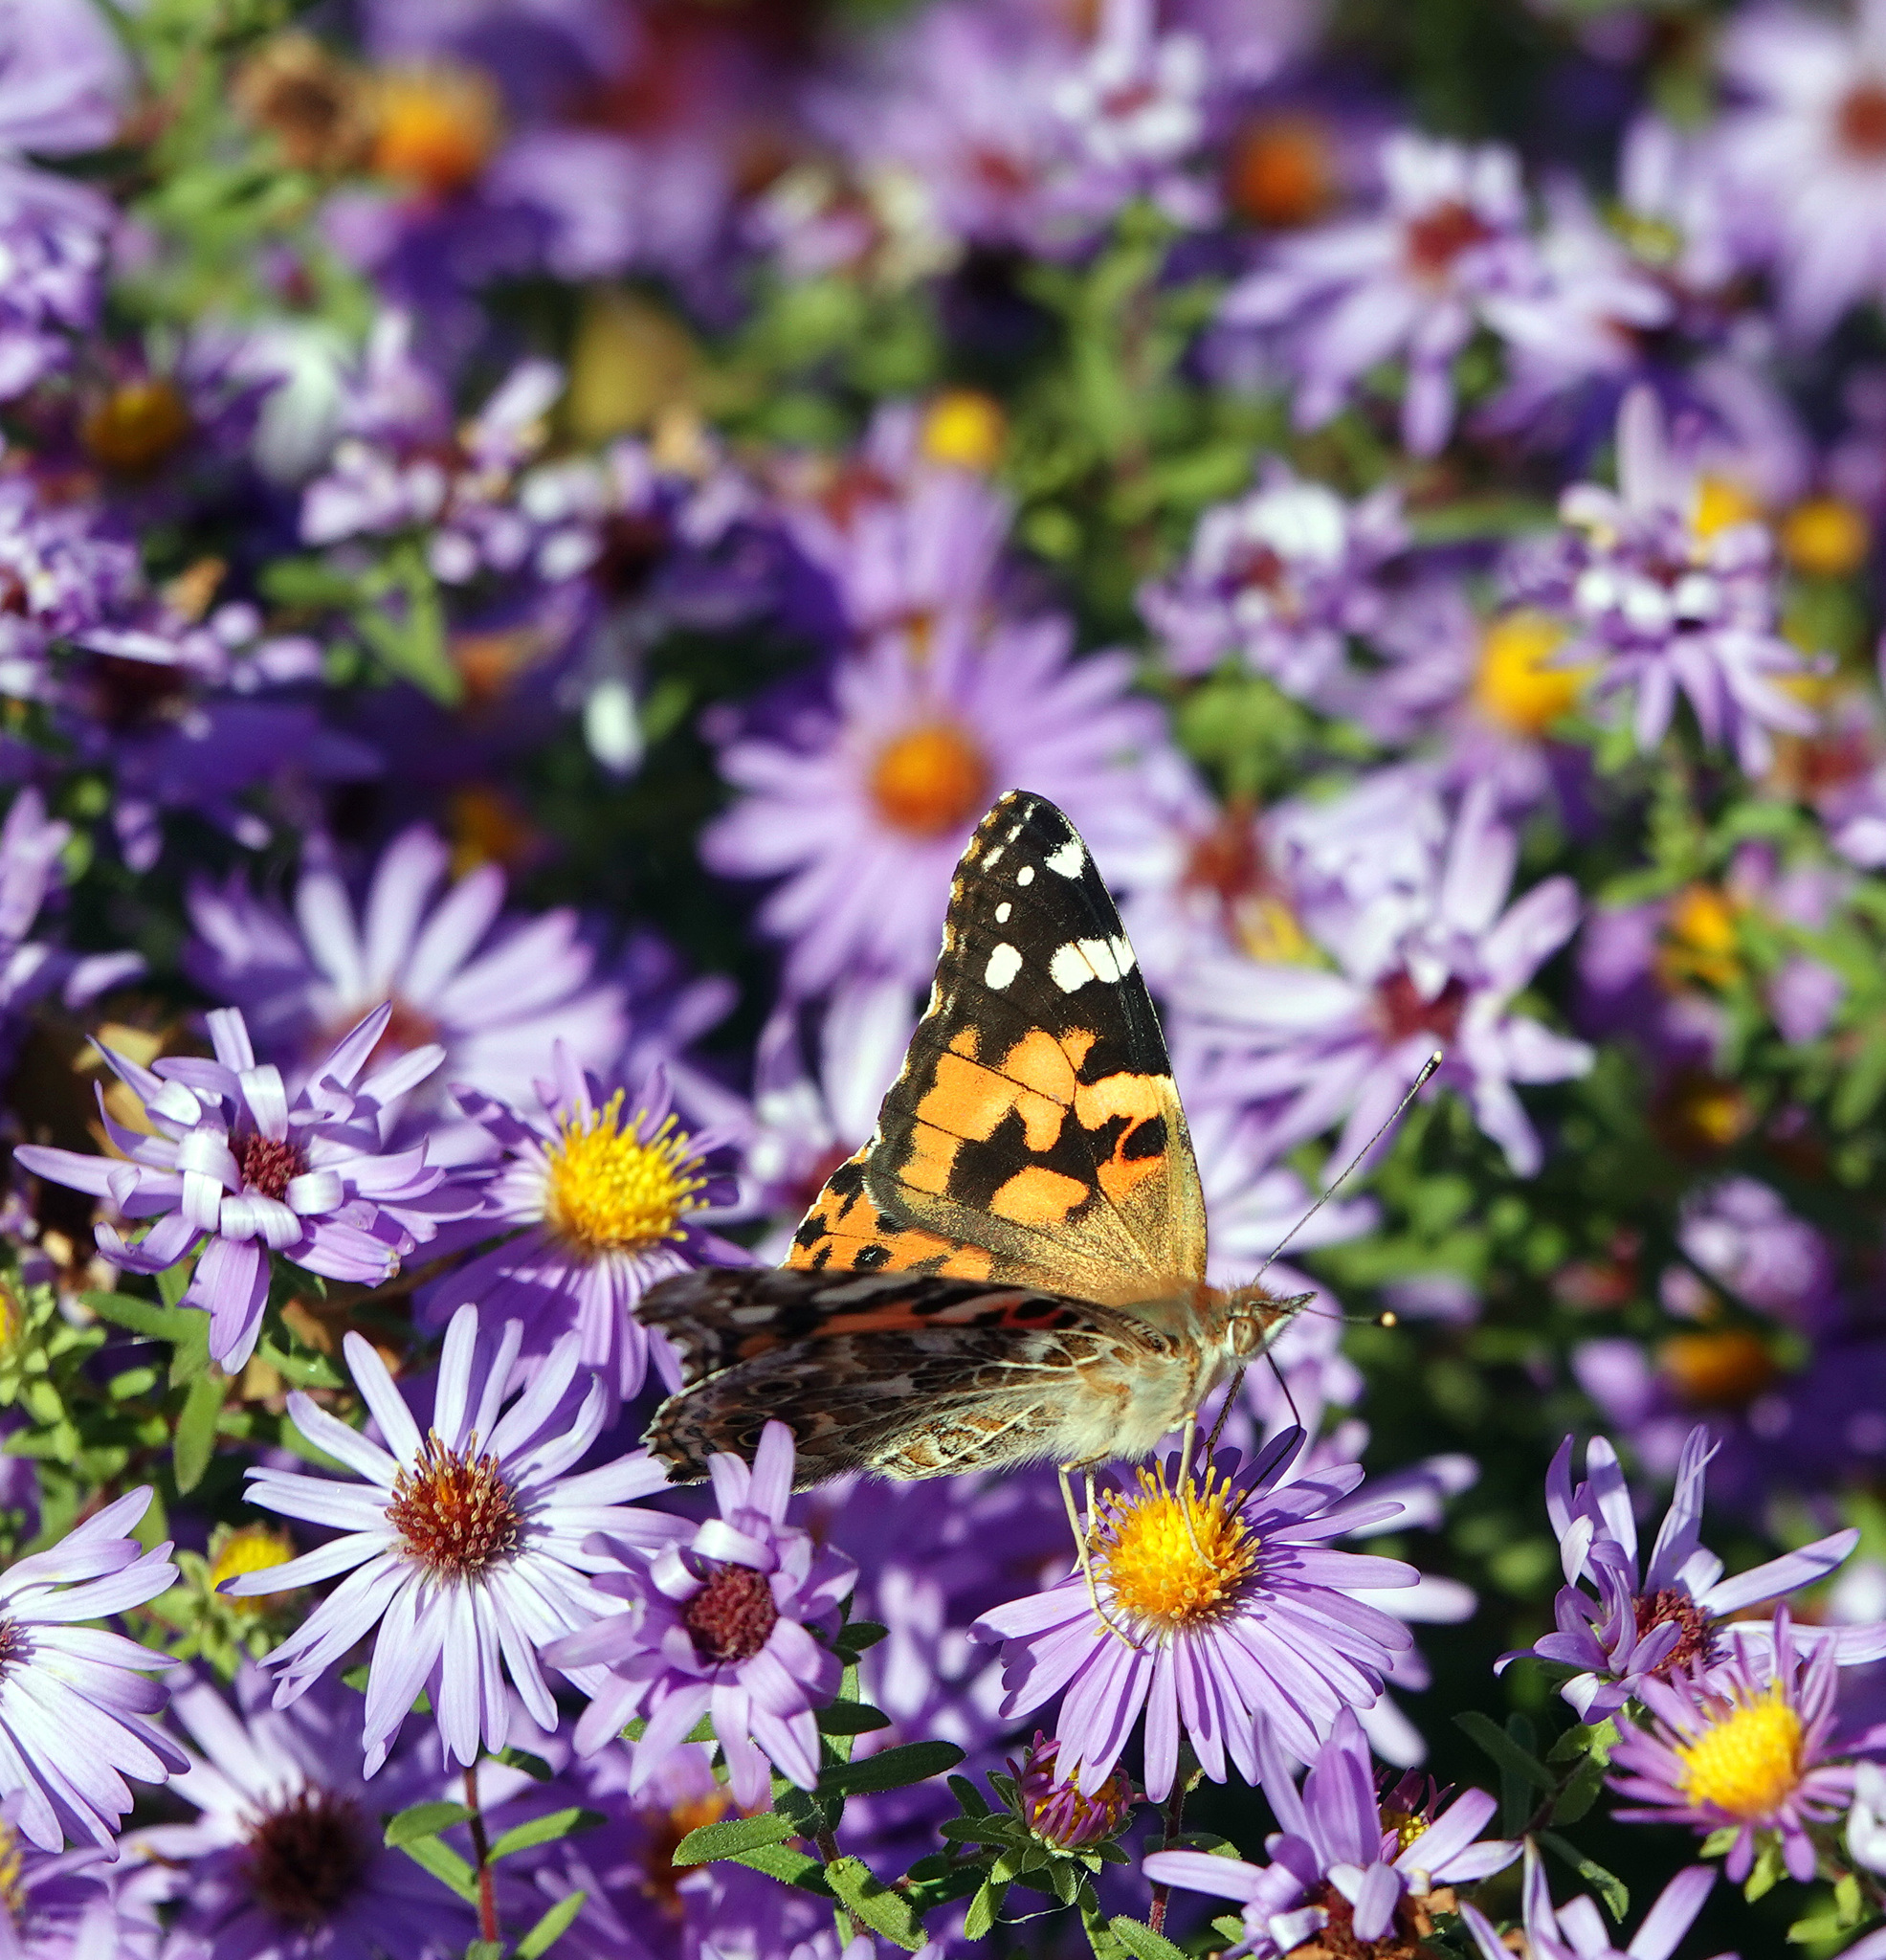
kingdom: Animalia
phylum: Arthropoda
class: Insecta
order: Lepidoptera
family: Nymphalidae
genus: Vanessa
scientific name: Vanessa cardui
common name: Painted lady
